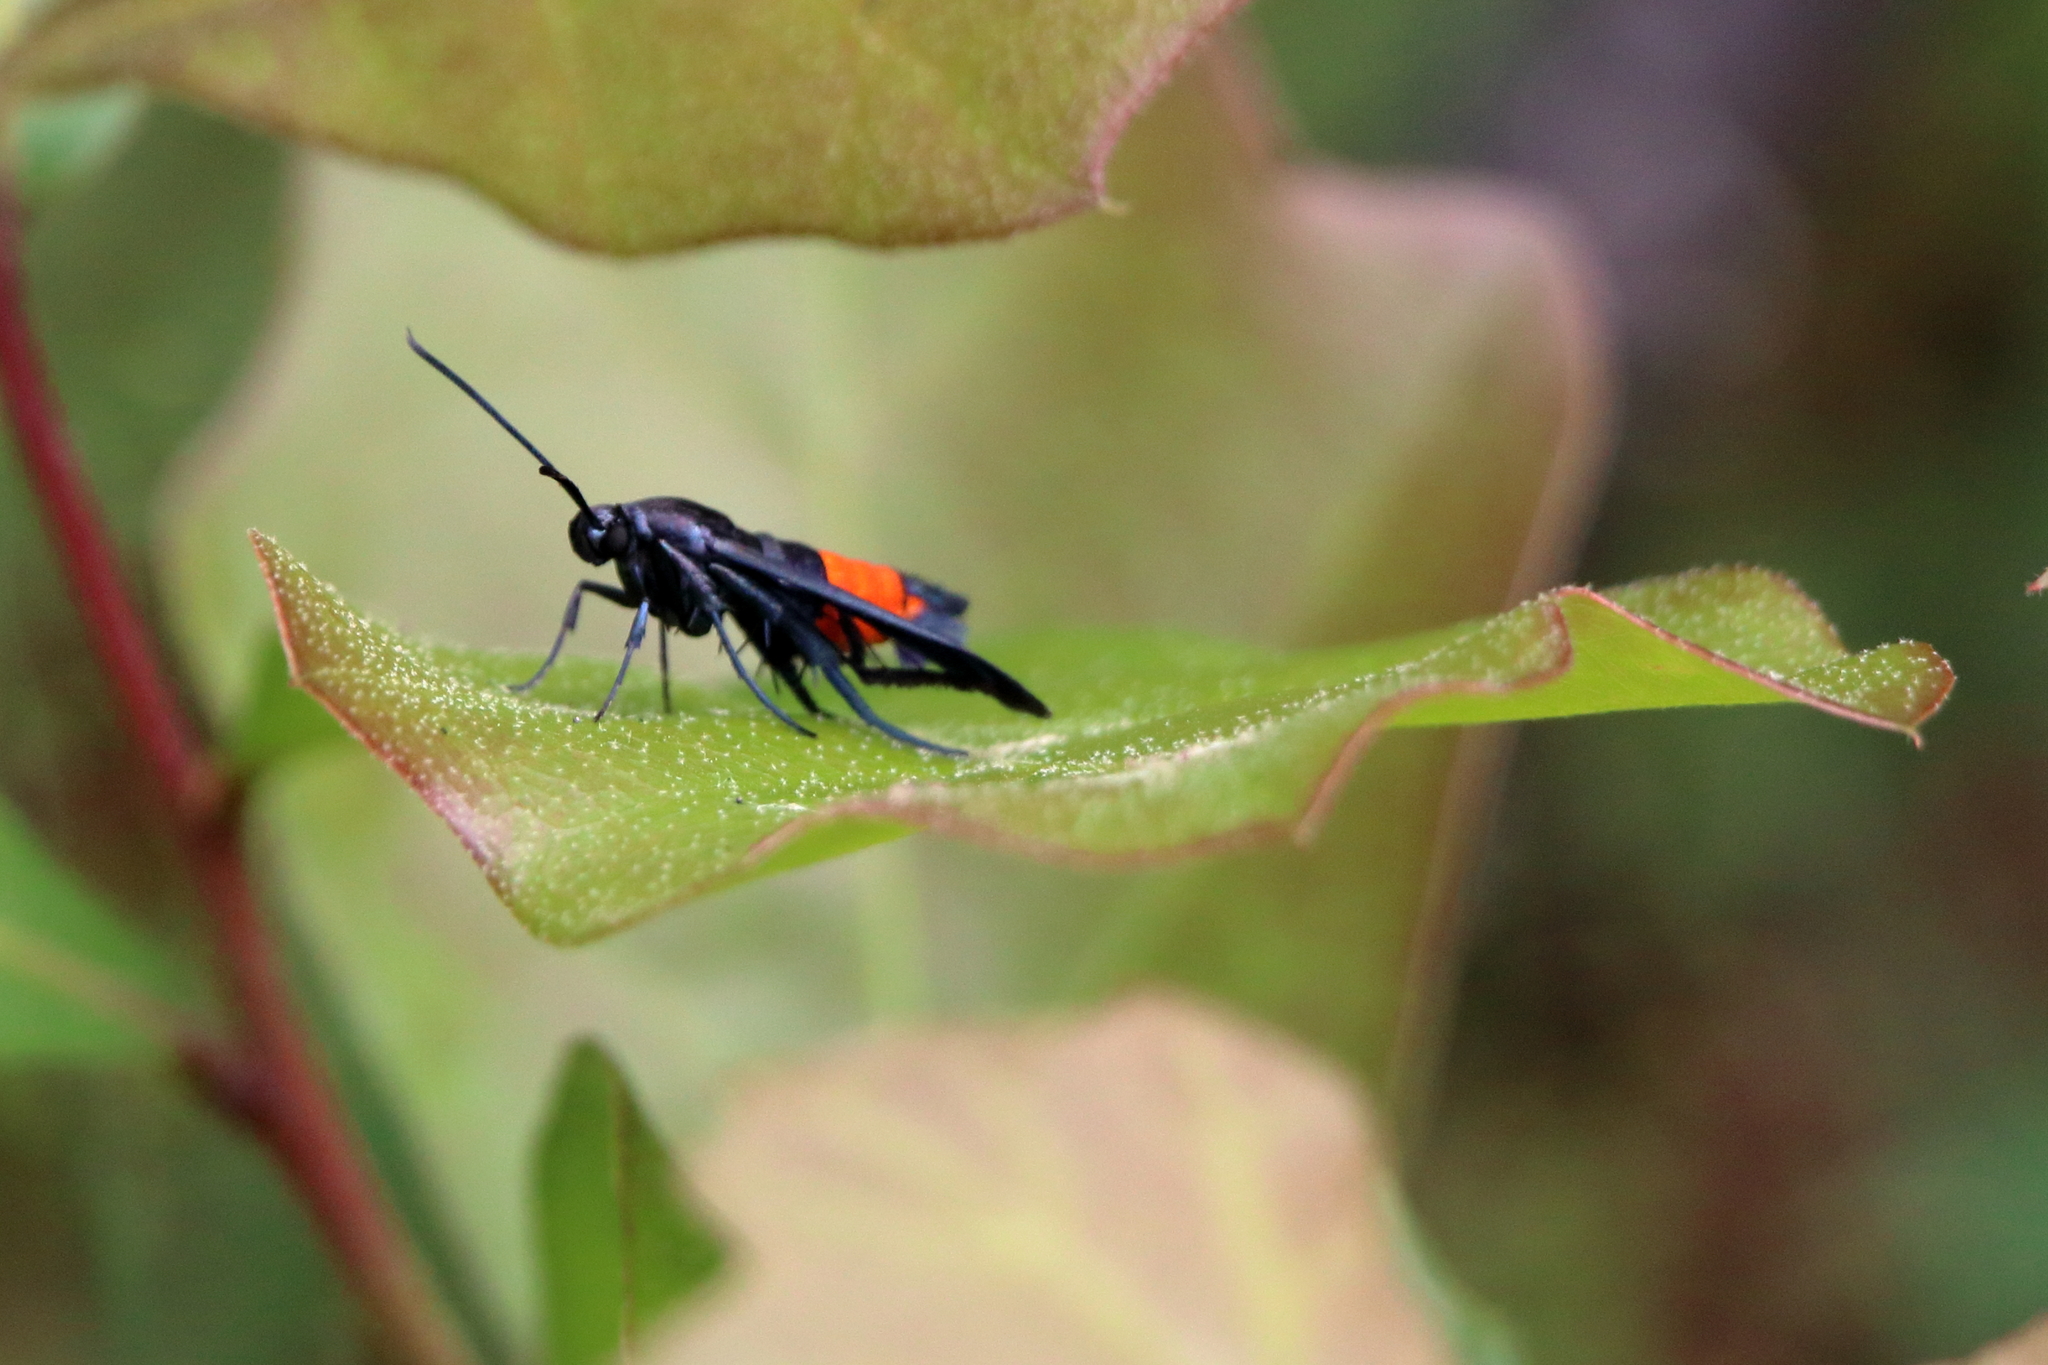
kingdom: Animalia
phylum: Arthropoda
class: Insecta
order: Lepidoptera
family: Sesiidae
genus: Synanthedon
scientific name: Synanthedon rubrofascia
